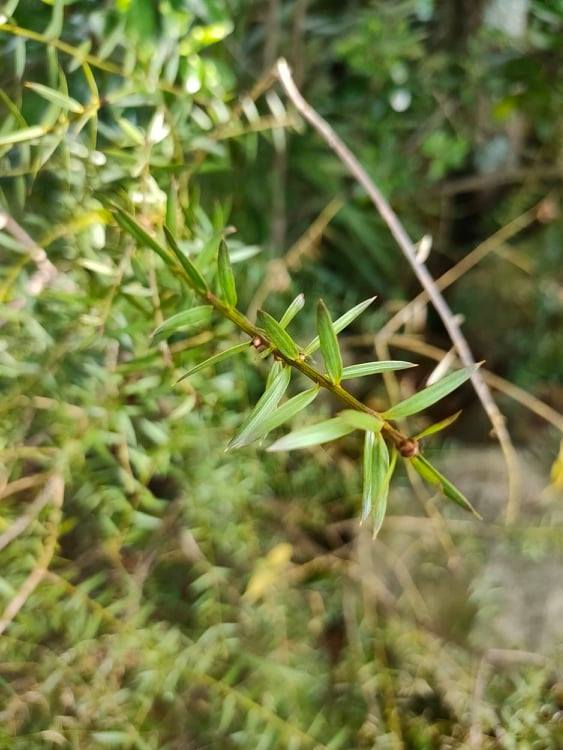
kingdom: Plantae
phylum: Tracheophyta
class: Pinopsida
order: Pinales
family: Podocarpaceae
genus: Podocarpus
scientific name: Podocarpus totara
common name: Totara
